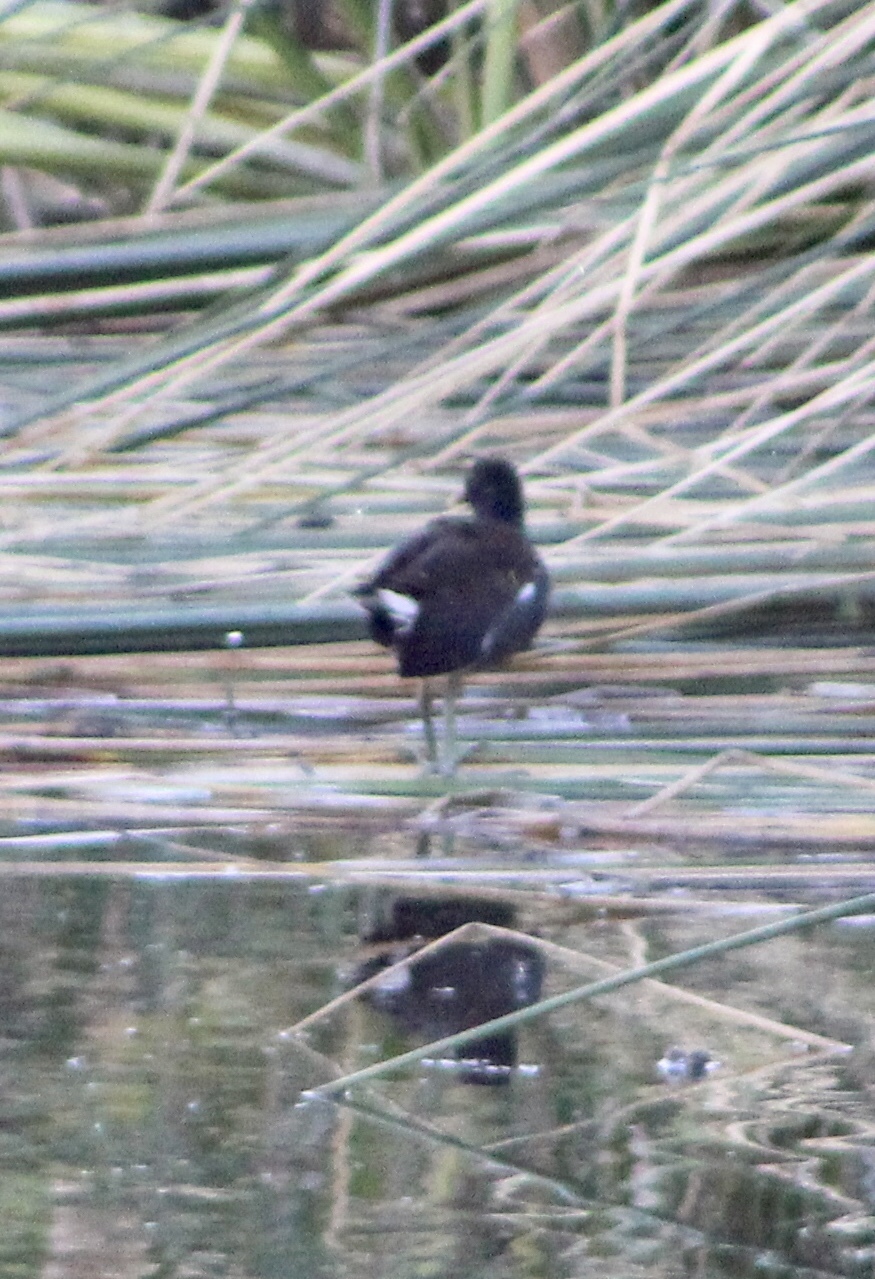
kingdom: Animalia
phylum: Chordata
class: Aves
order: Gruiformes
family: Rallidae
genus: Gallinula
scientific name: Gallinula chloropus
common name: Common moorhen
